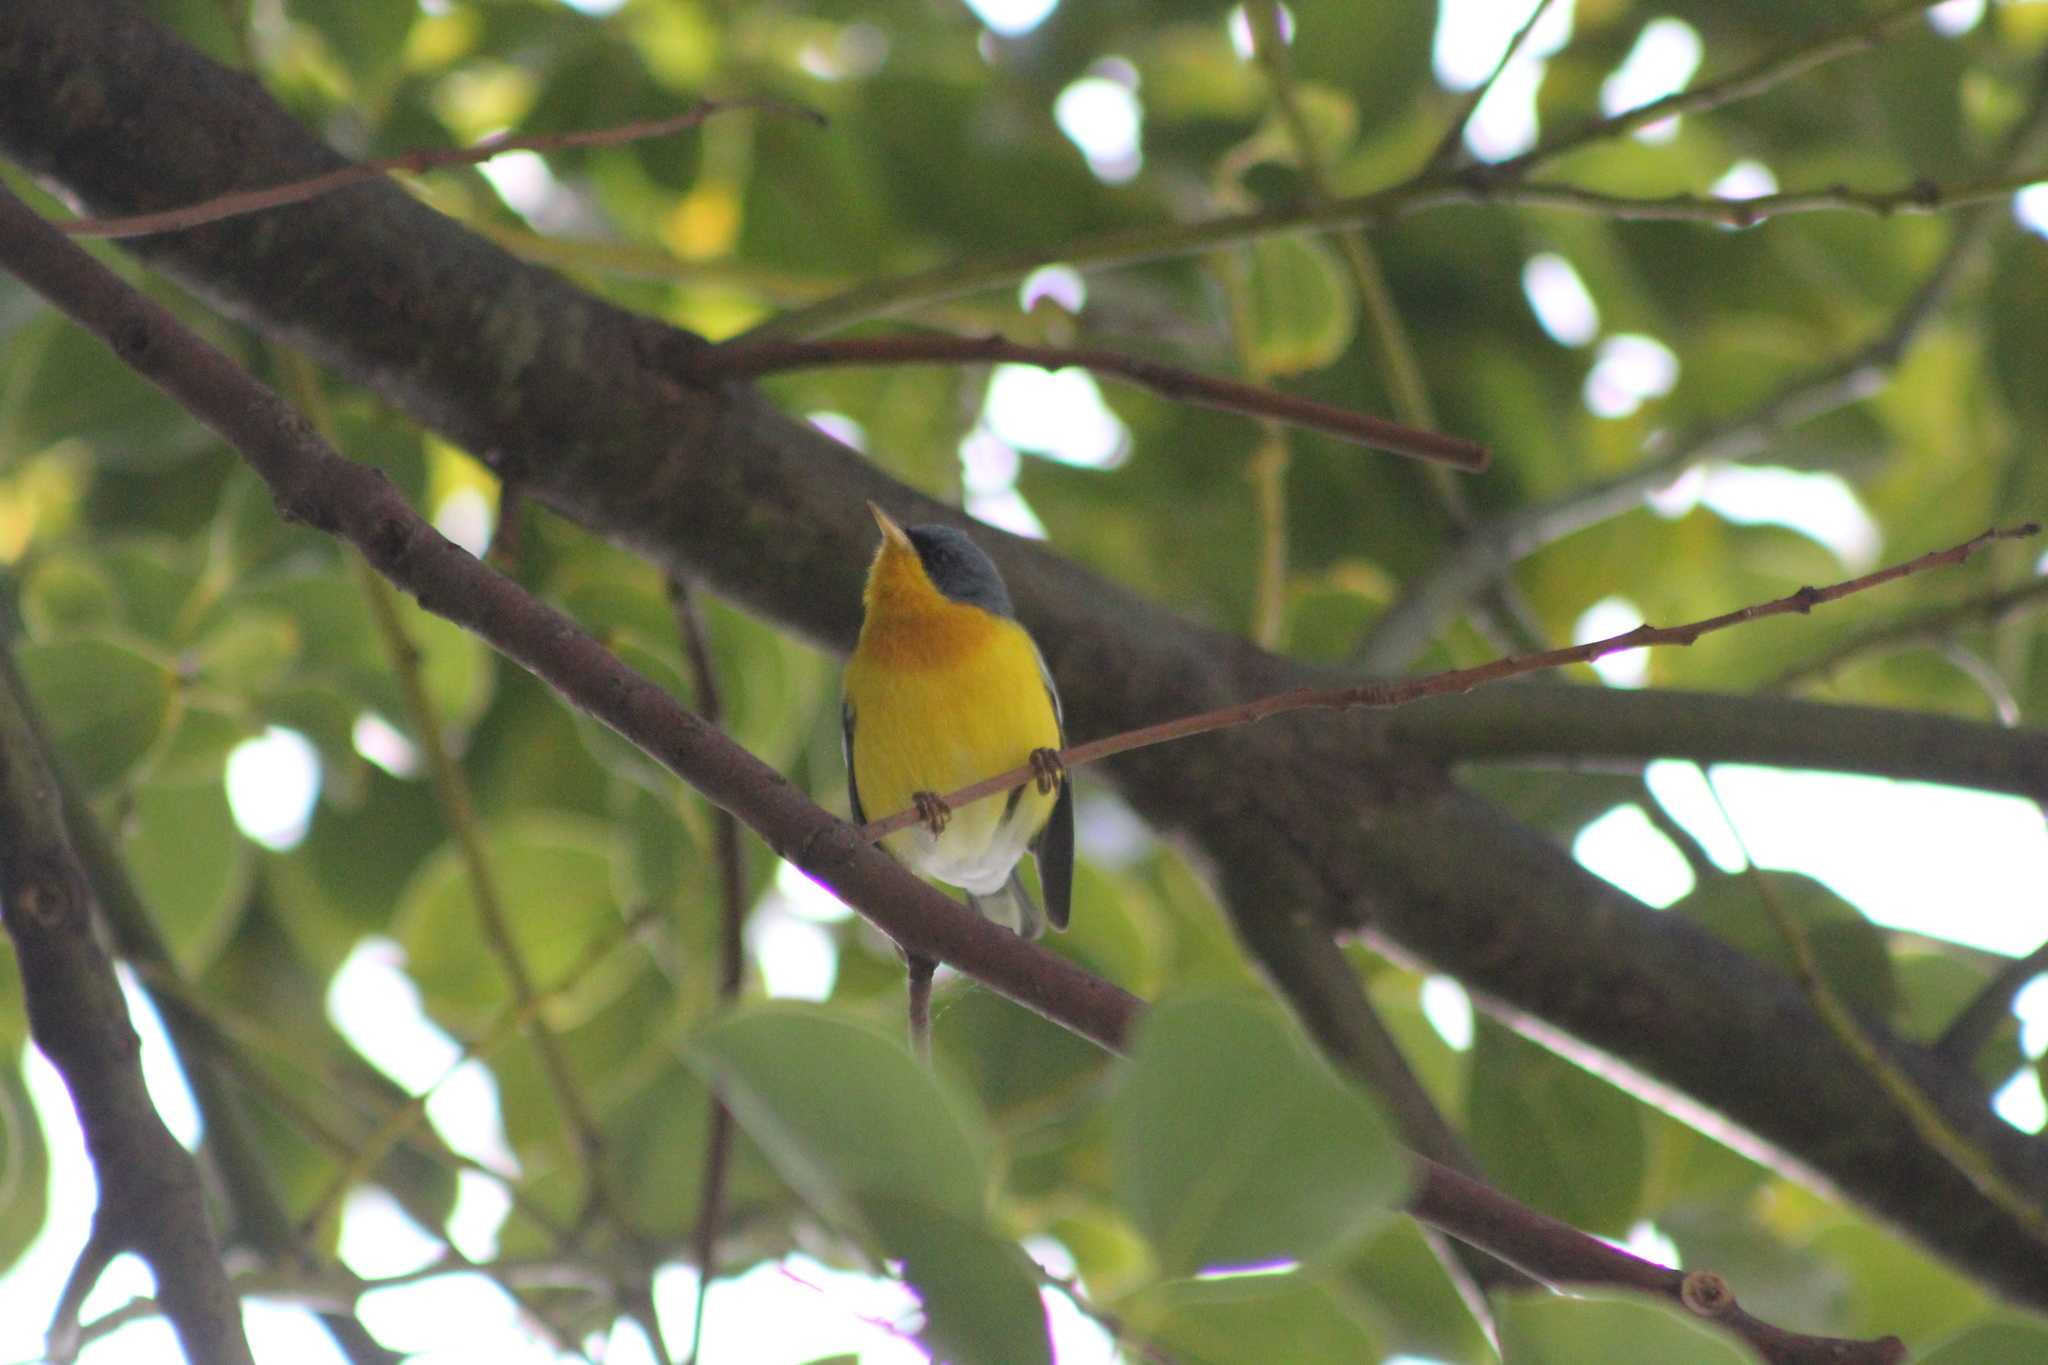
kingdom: Animalia
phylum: Chordata
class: Aves
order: Passeriformes
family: Parulidae
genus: Setophaga
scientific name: Setophaga pitiayumi
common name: Tropical parula
